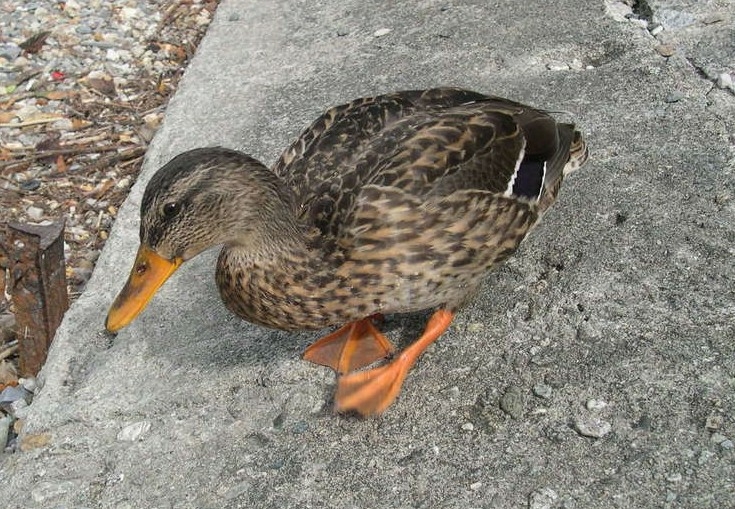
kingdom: Animalia
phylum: Chordata
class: Aves
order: Anseriformes
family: Anatidae
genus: Anas
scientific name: Anas platyrhynchos
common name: Mallard
